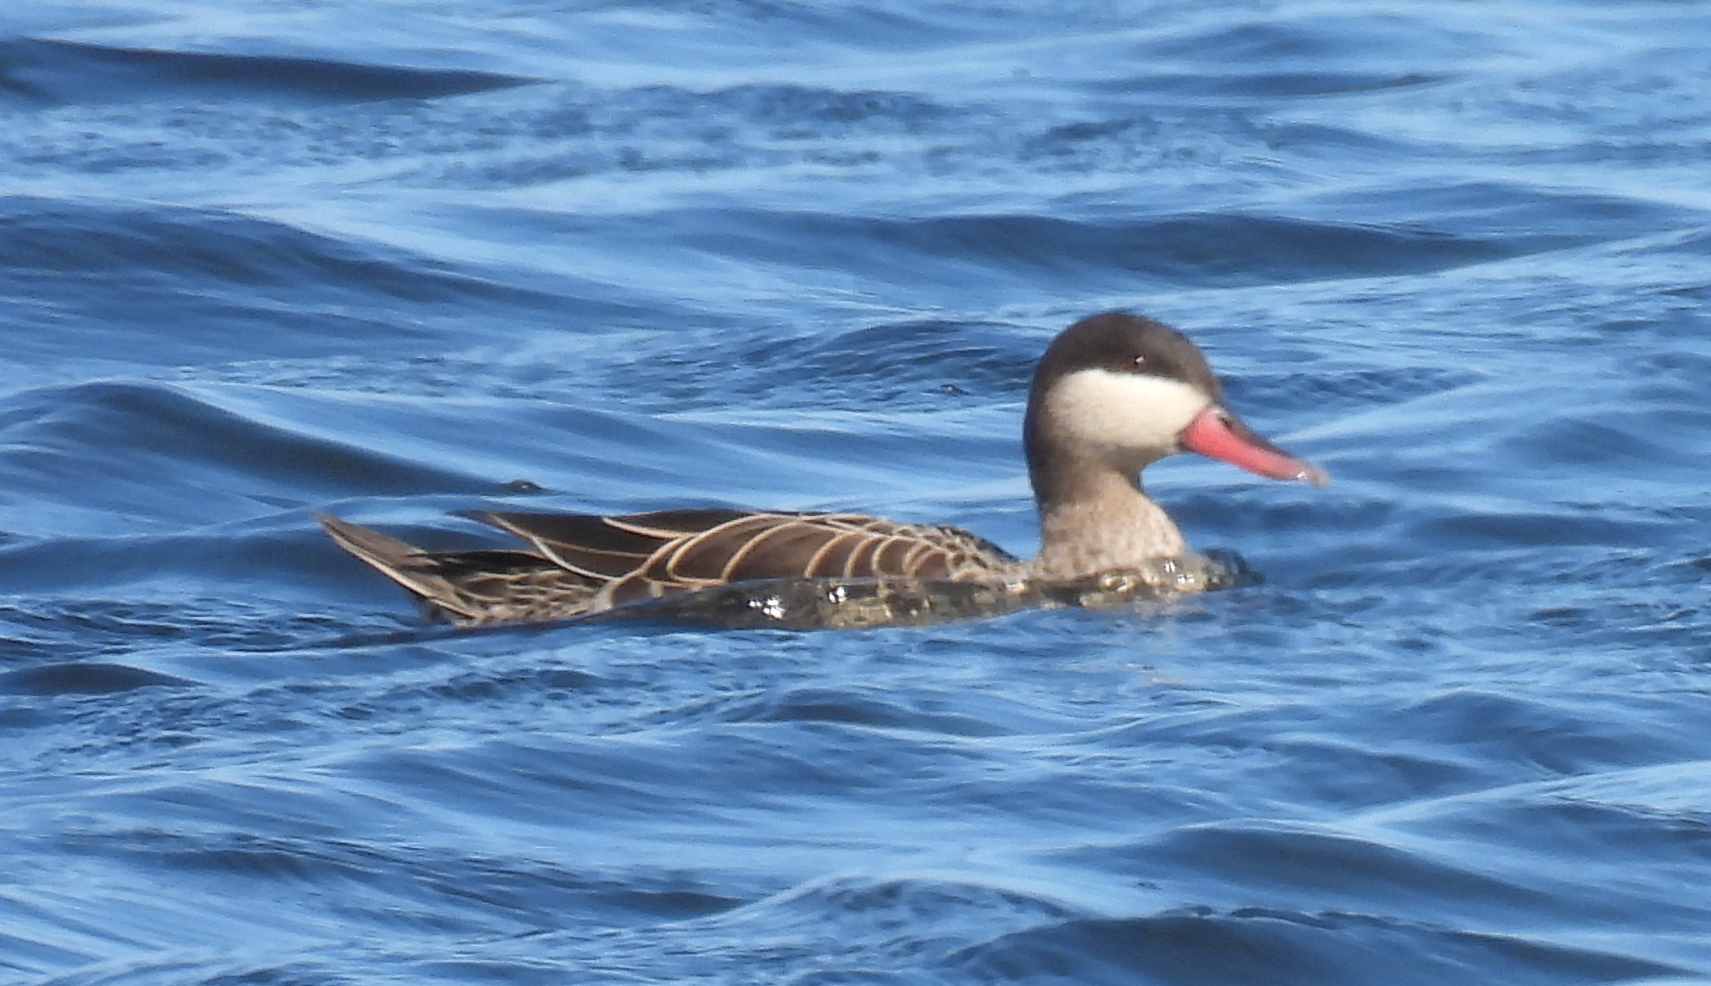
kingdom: Animalia
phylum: Chordata
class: Aves
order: Anseriformes
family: Anatidae
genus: Anas
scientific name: Anas erythrorhyncha
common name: Red-billed teal
